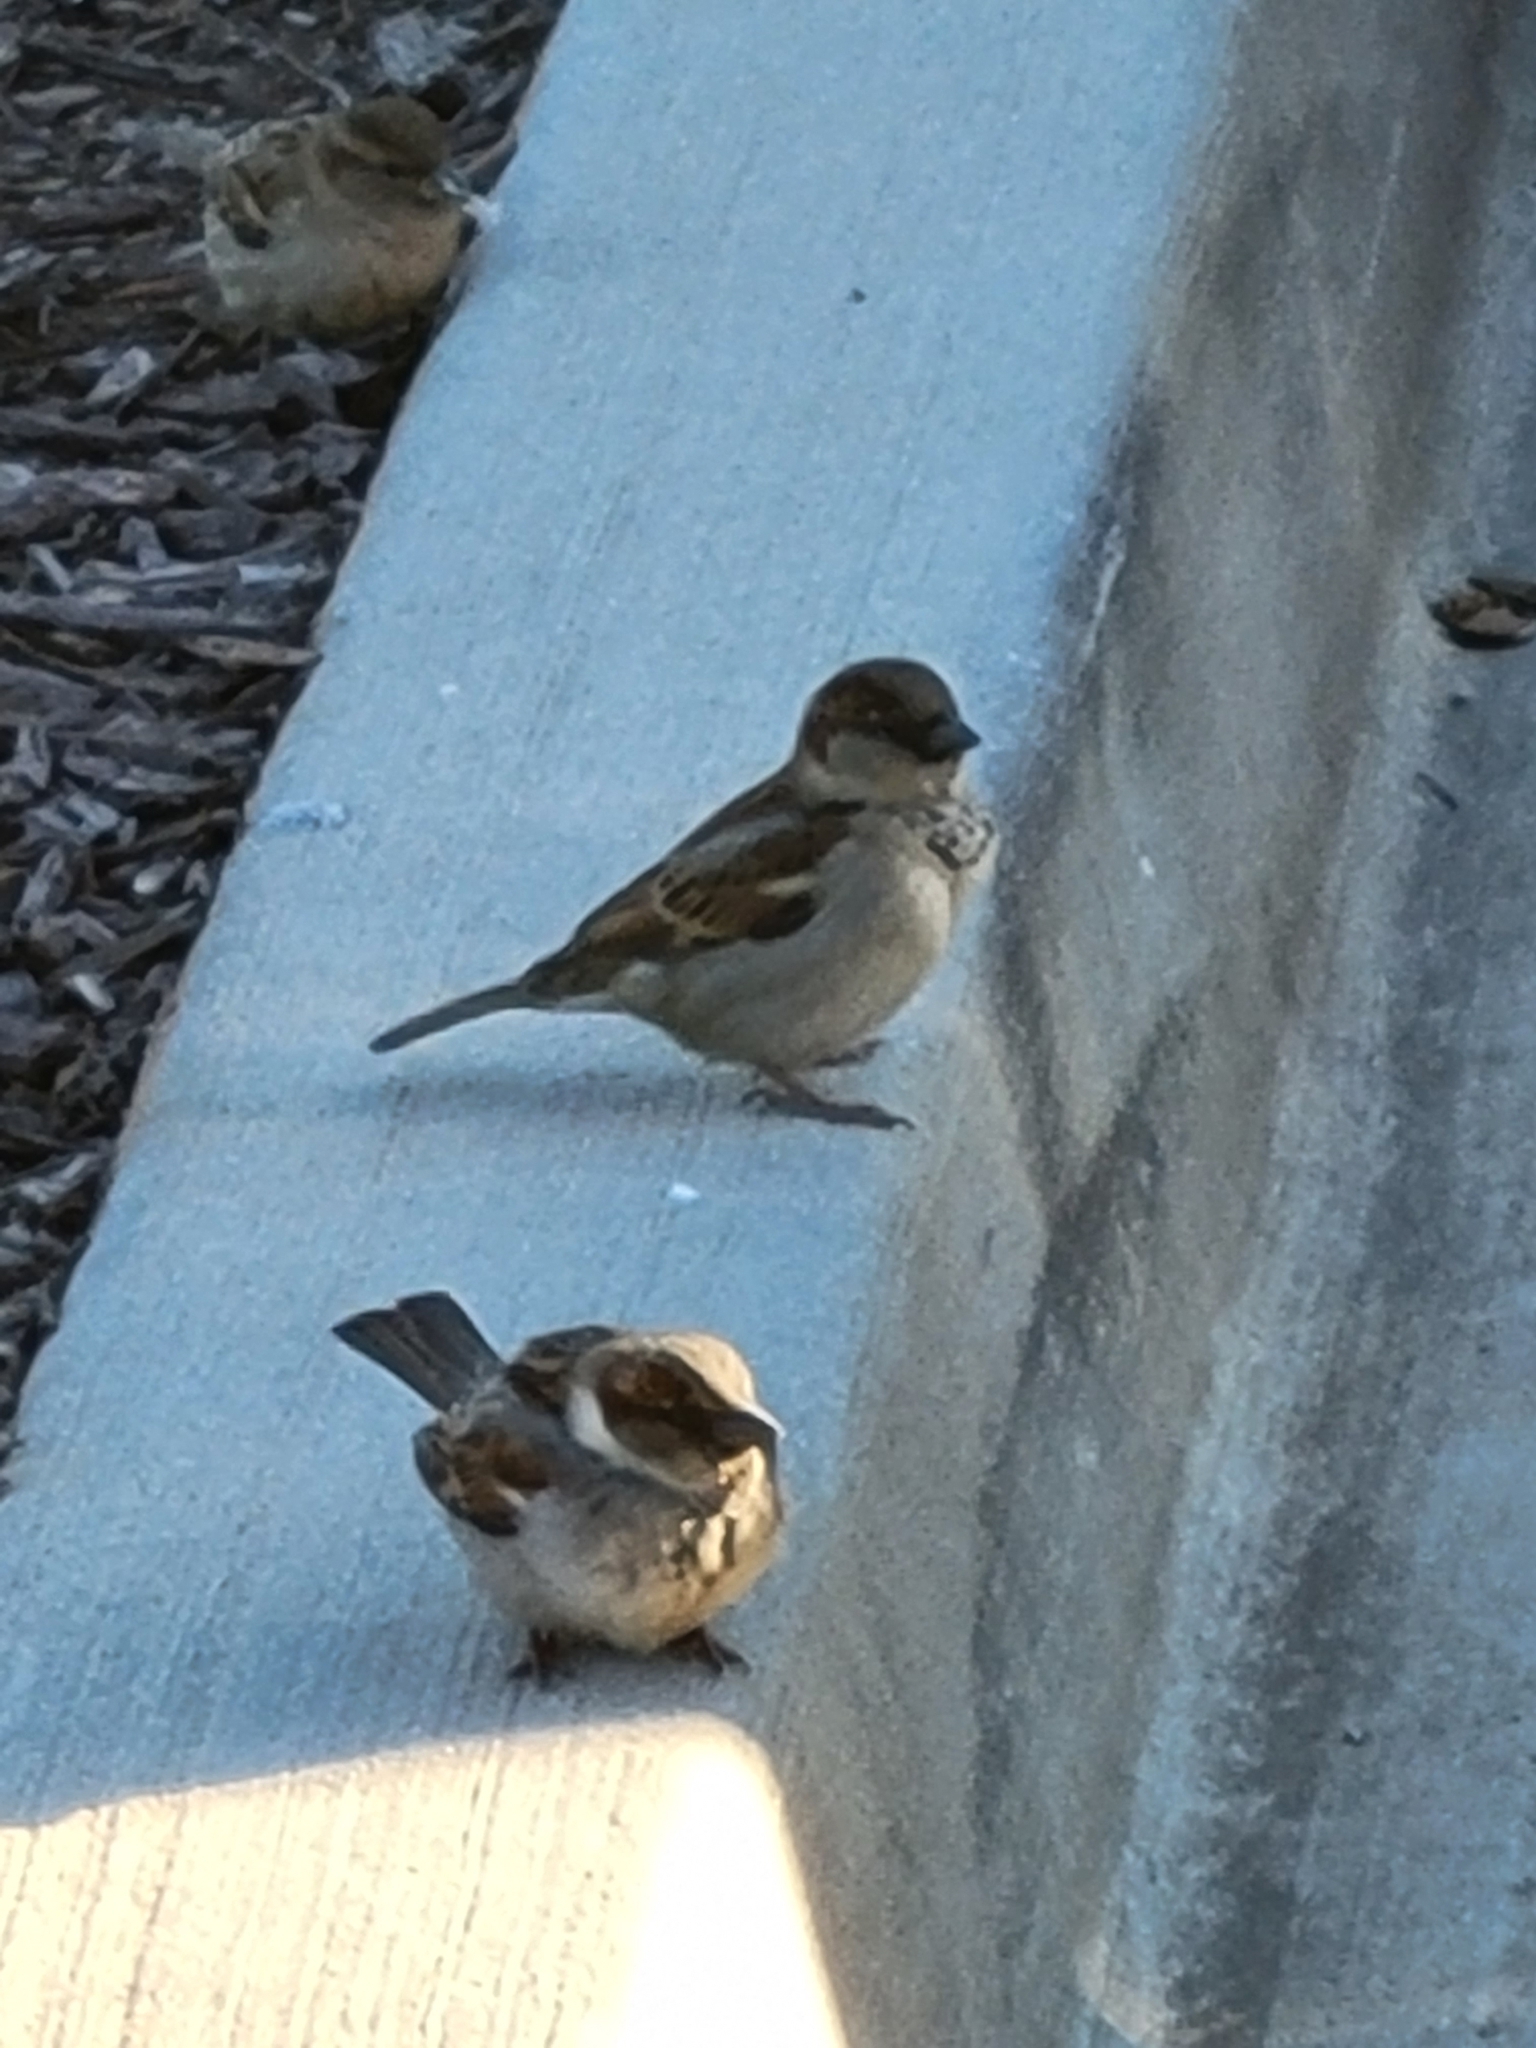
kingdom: Animalia
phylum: Chordata
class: Aves
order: Passeriformes
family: Passeridae
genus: Passer
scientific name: Passer domesticus
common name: House sparrow
